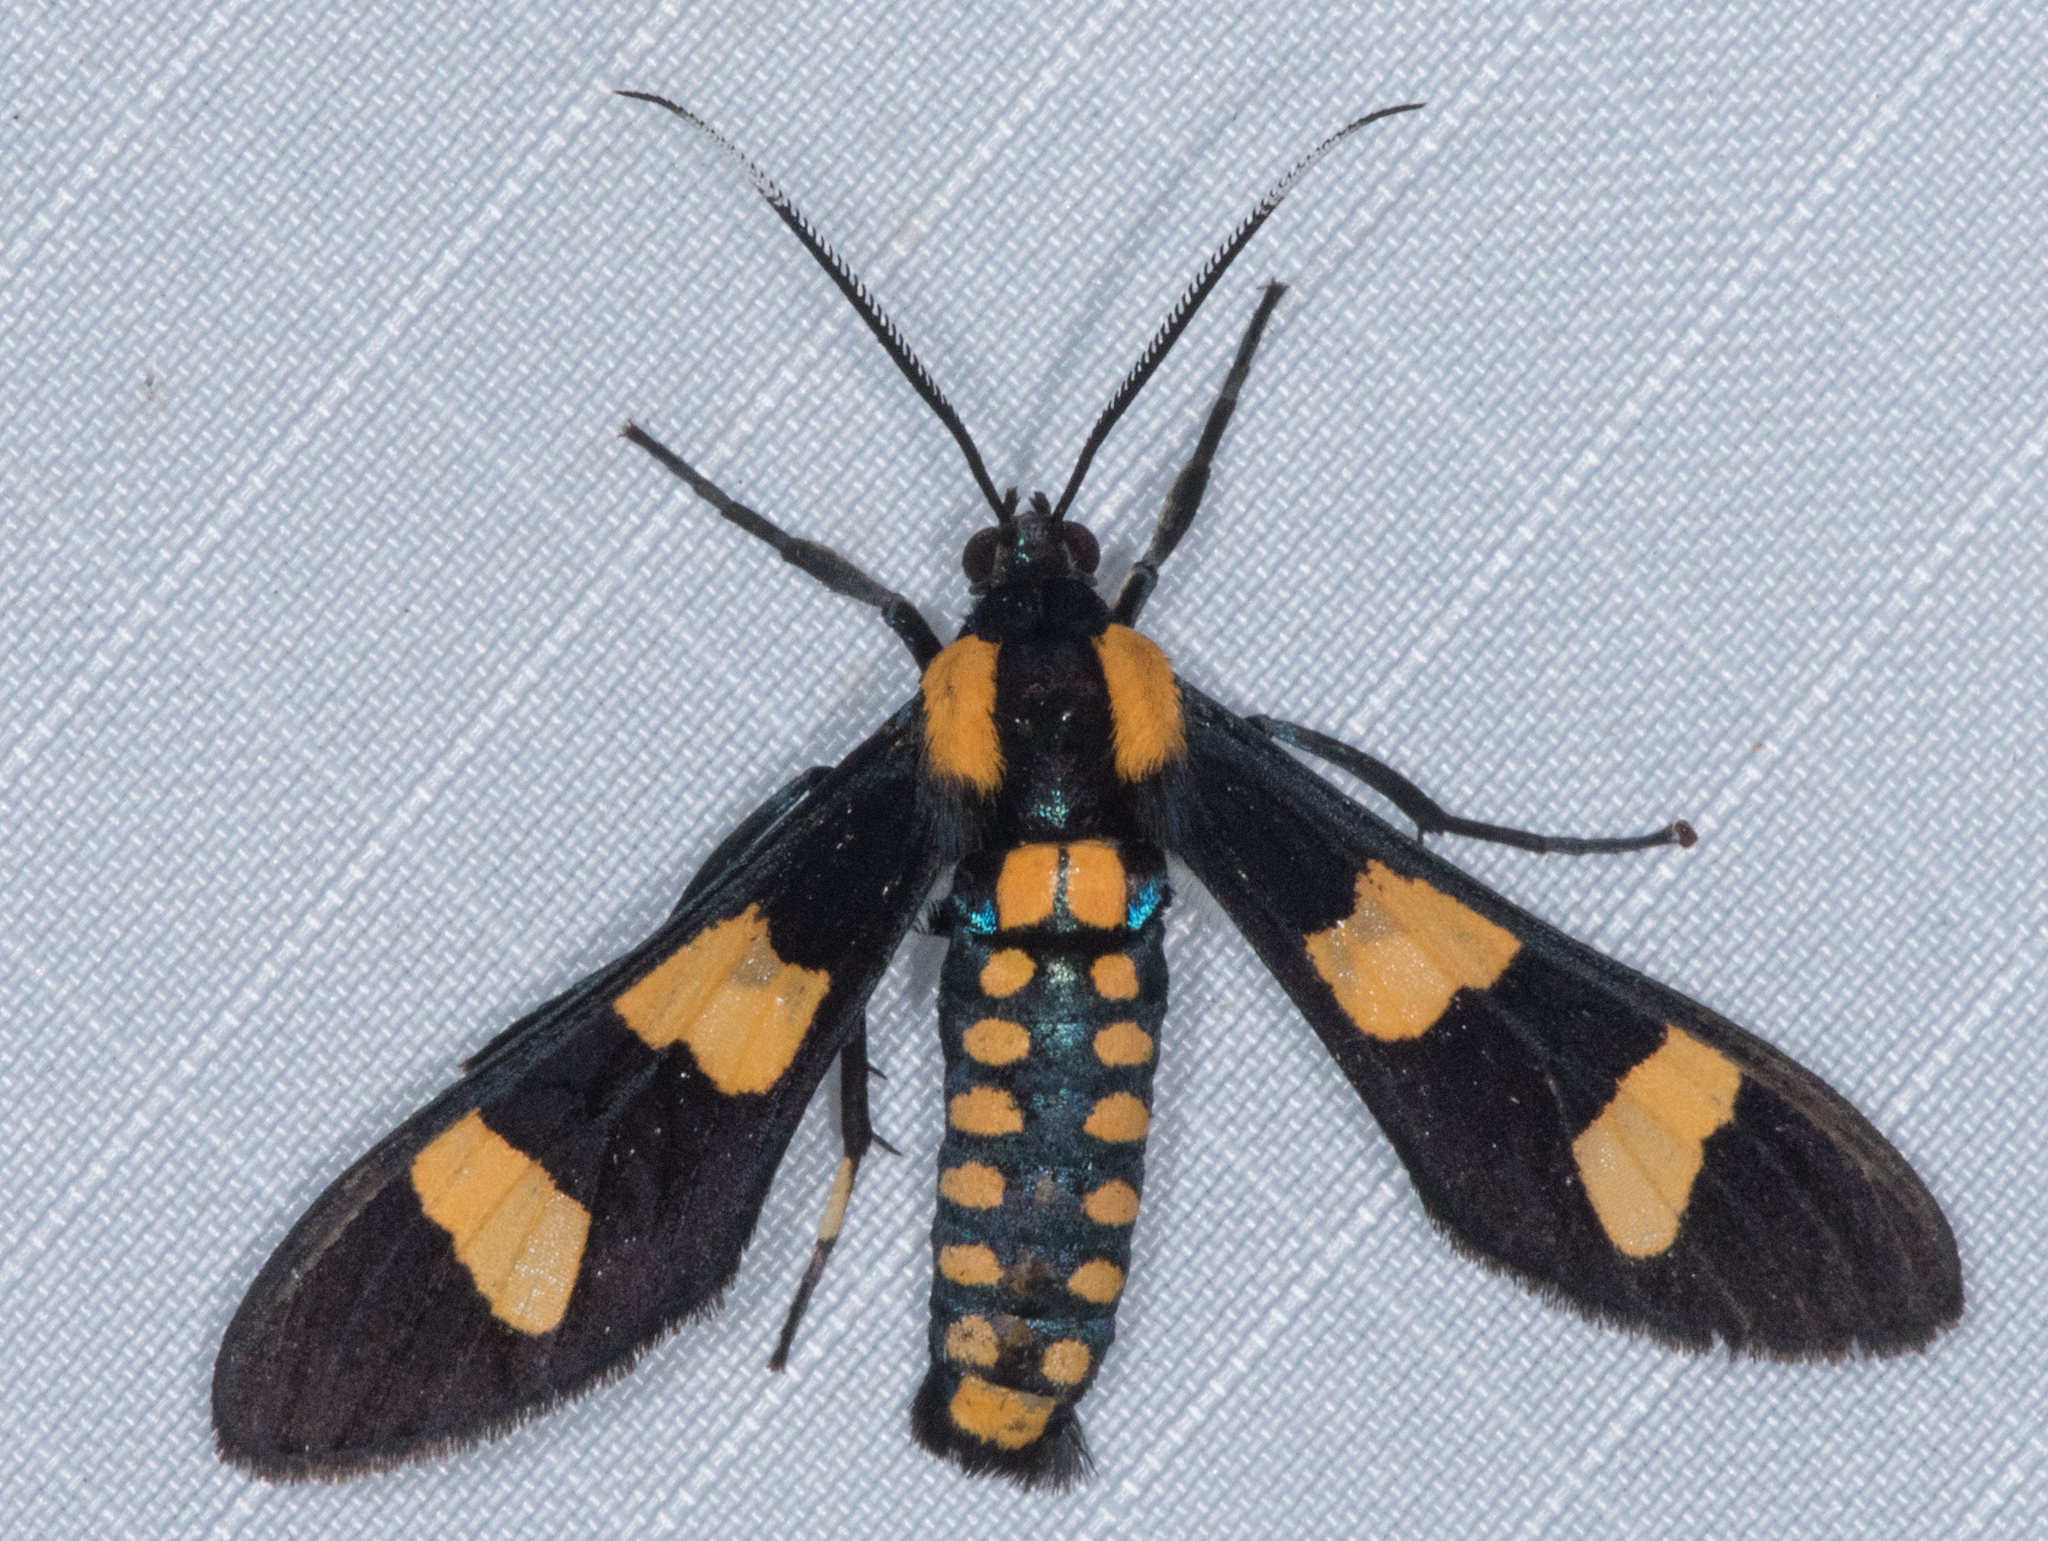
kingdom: Animalia
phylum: Arthropoda
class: Insecta
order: Lepidoptera
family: Erebidae
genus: Phoenicoprocta
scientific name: Phoenicoprocta hampsonii
